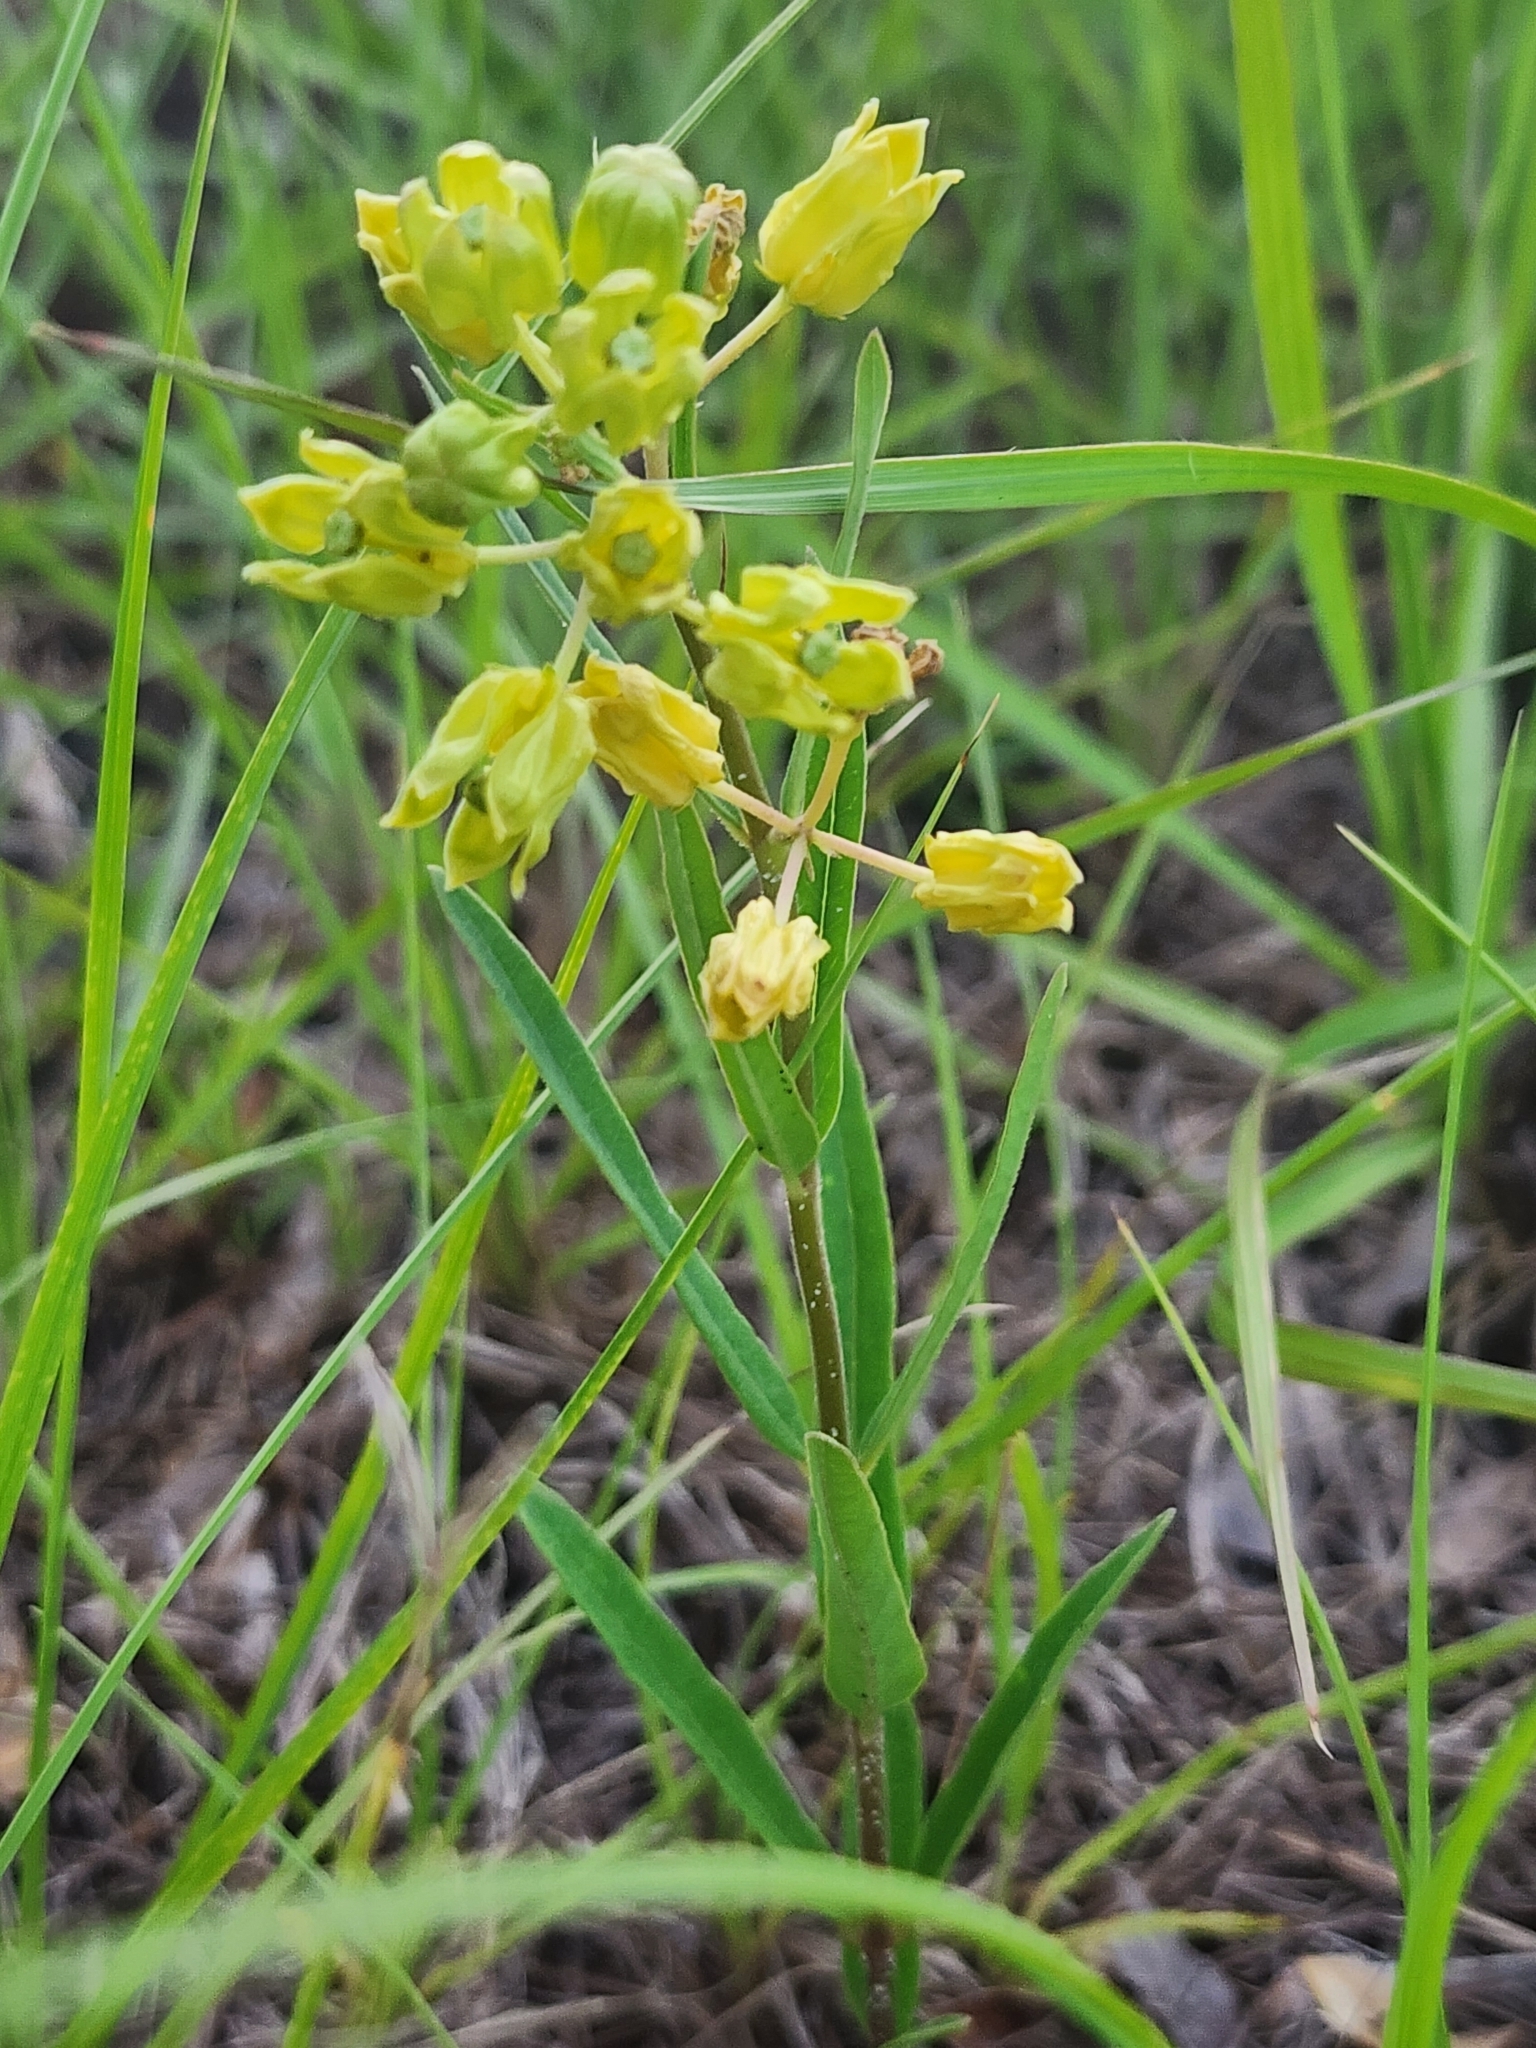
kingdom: Plantae
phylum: Tracheophyta
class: Magnoliopsida
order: Gentianales
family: Apocynaceae
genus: Asclepias
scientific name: Asclepias pedicellata
